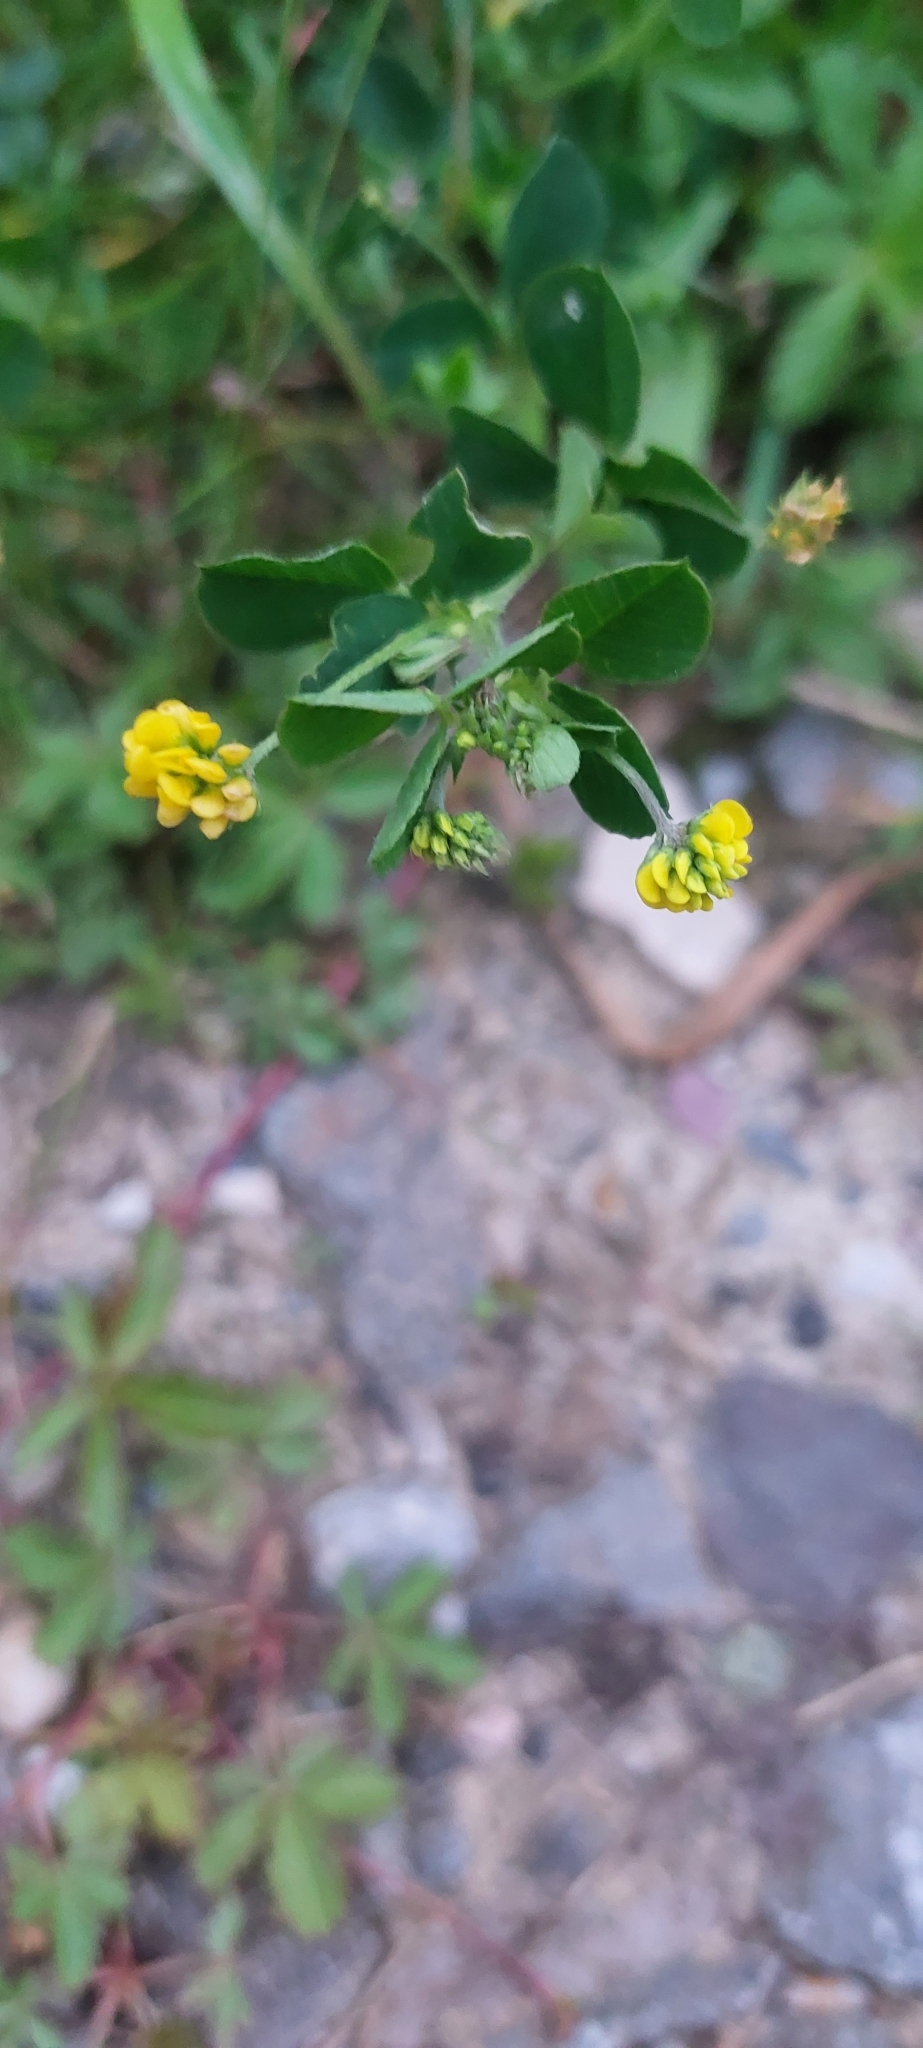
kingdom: Plantae
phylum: Tracheophyta
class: Magnoliopsida
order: Fabales
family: Fabaceae
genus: Medicago
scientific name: Medicago lupulina
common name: Black medick
